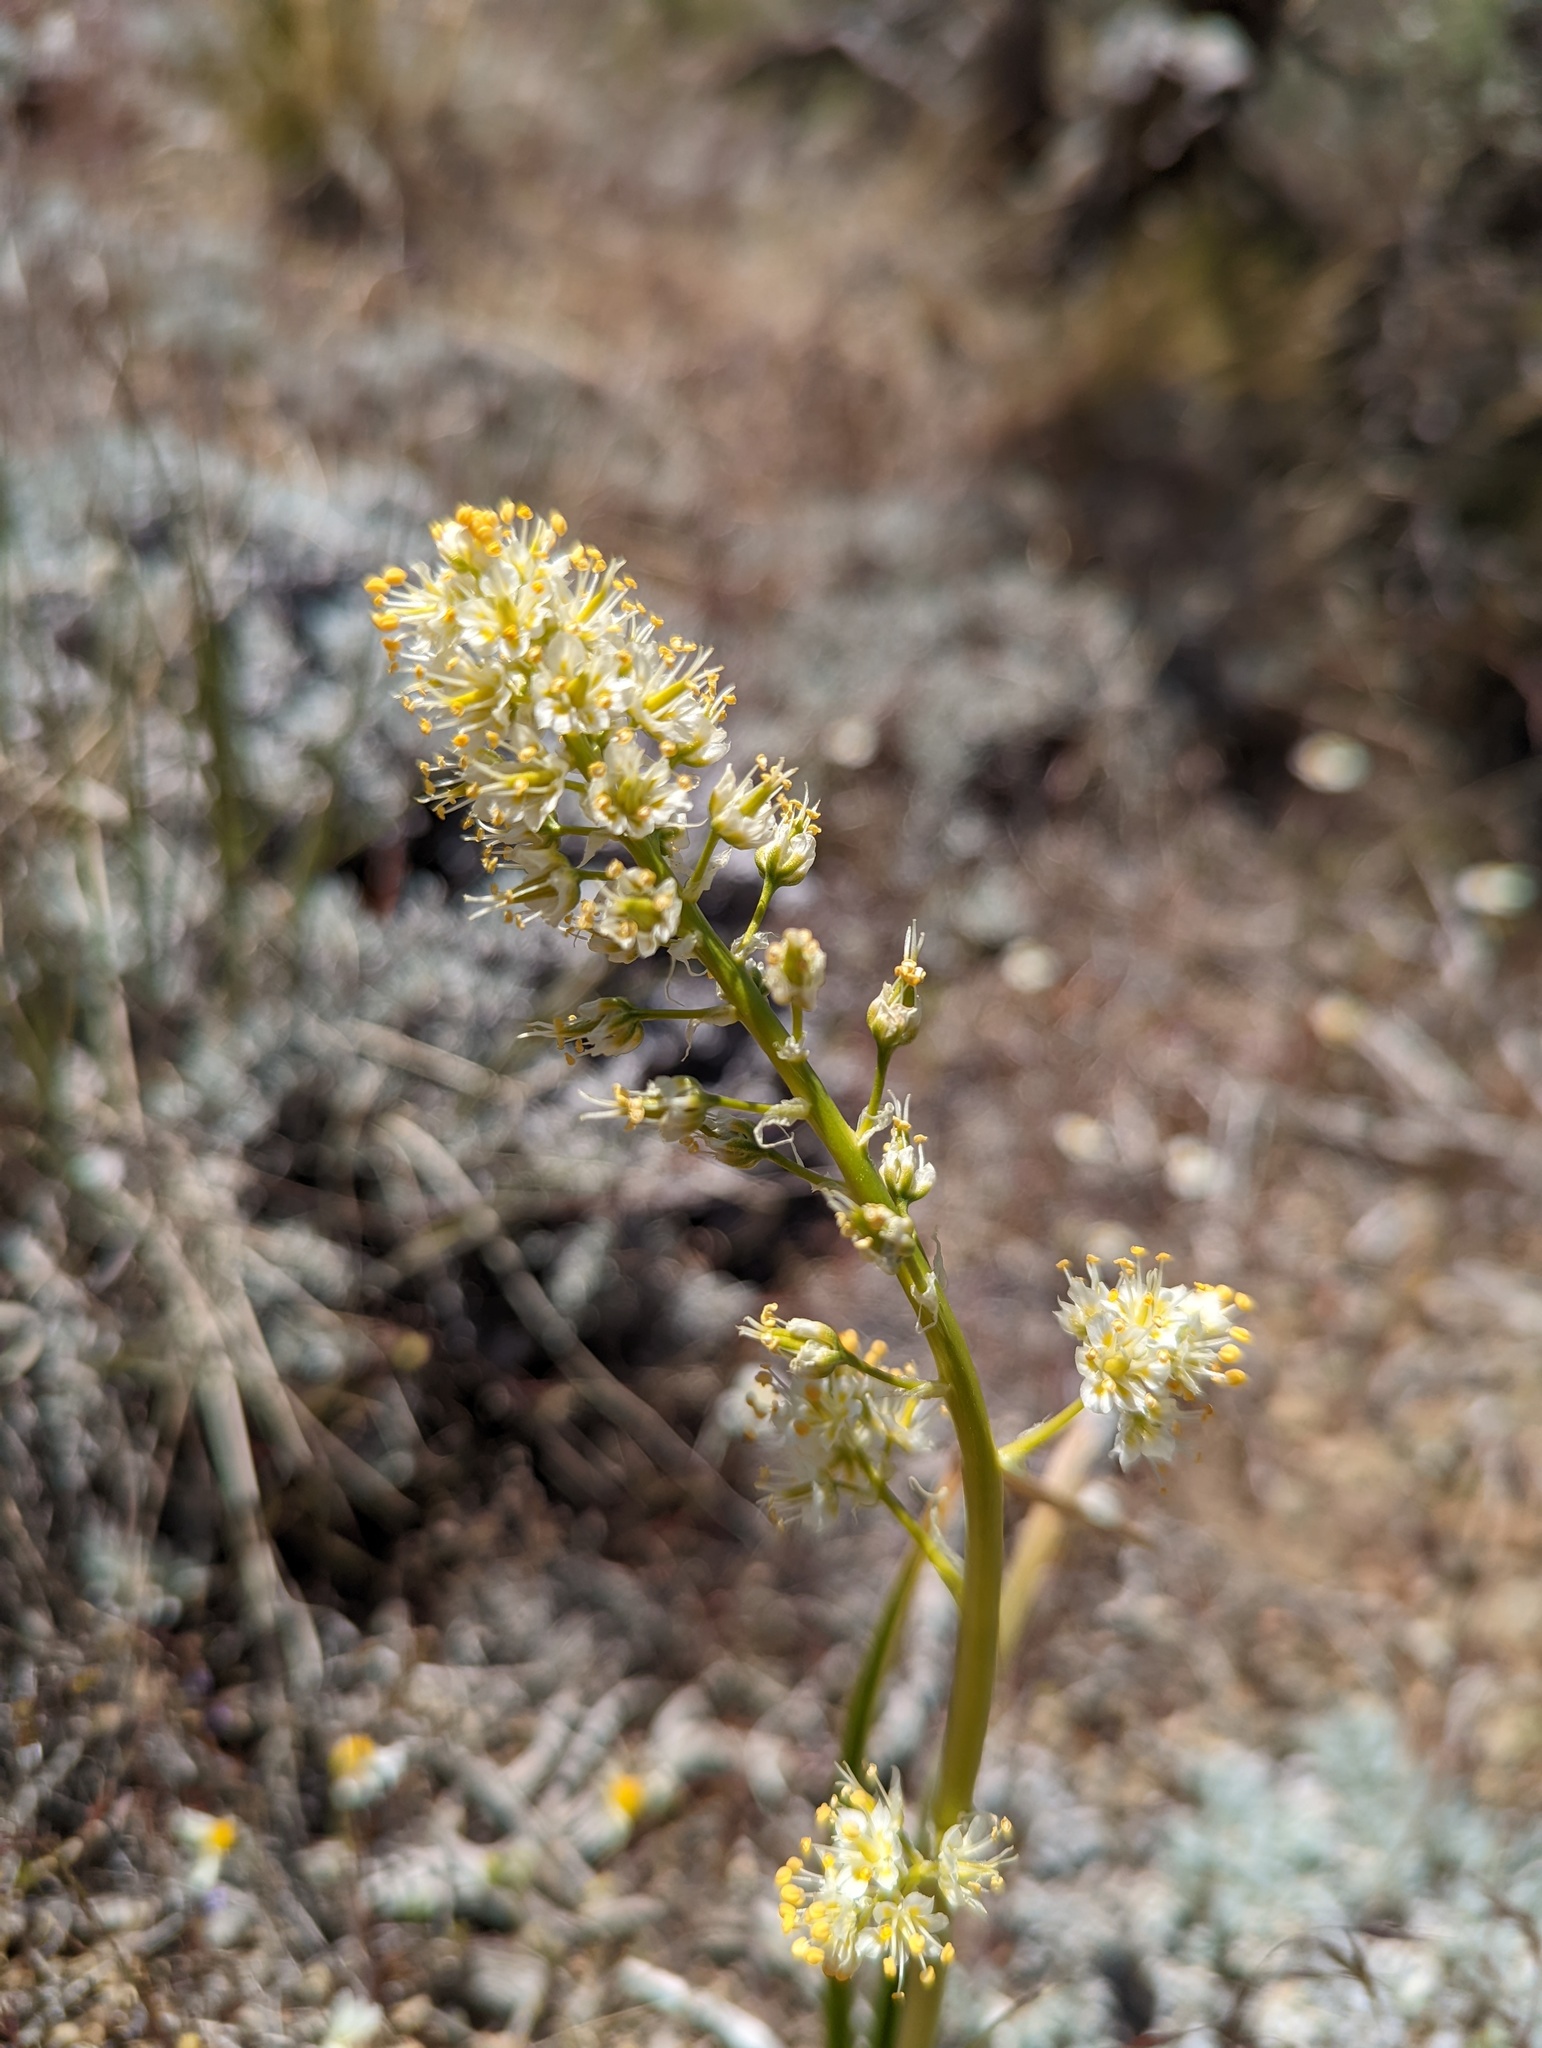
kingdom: Plantae
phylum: Tracheophyta
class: Liliopsida
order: Liliales
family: Melanthiaceae
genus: Toxicoscordion
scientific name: Toxicoscordion paniculatum
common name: Foothill death camas
